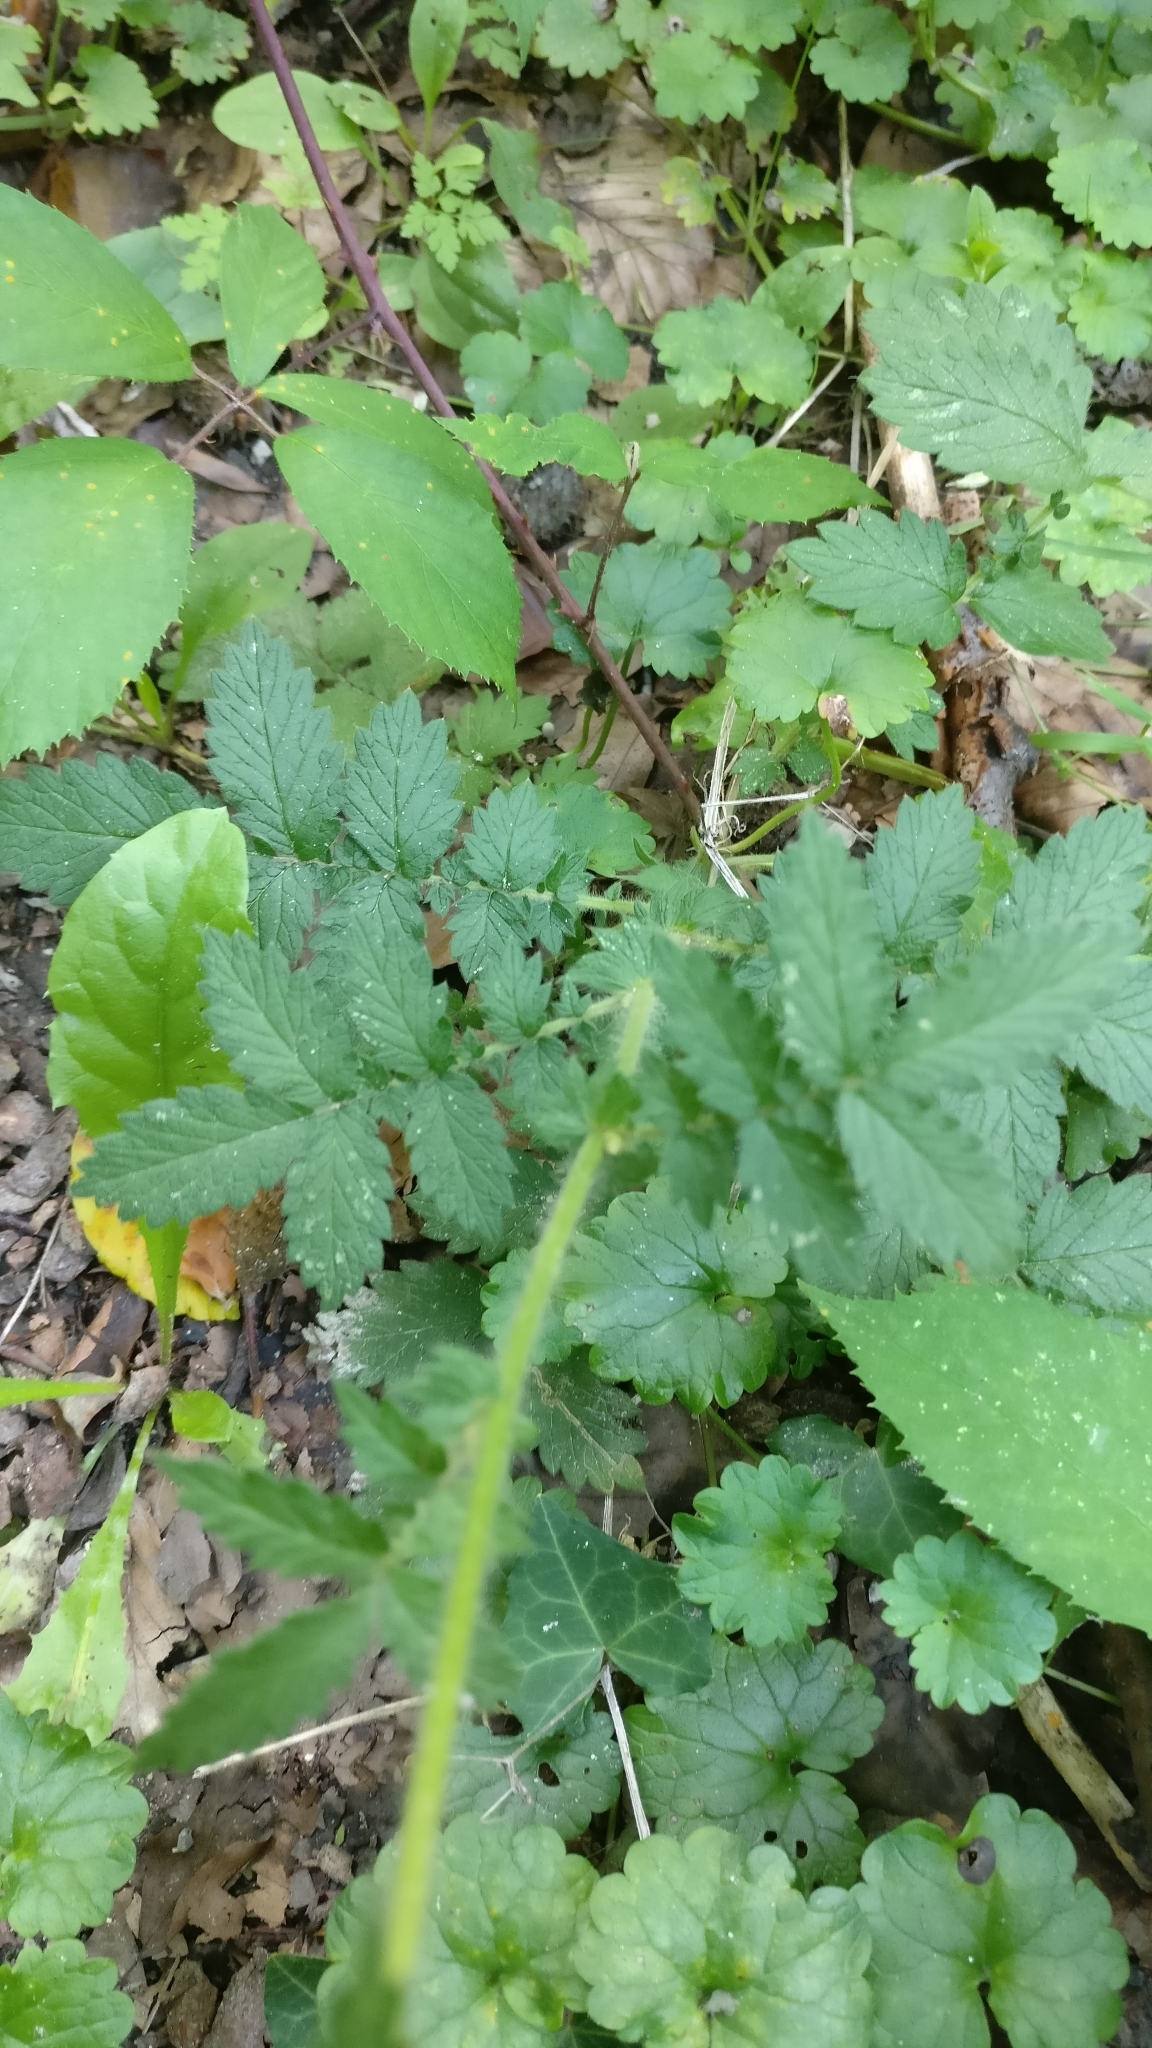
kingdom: Plantae
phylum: Tracheophyta
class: Magnoliopsida
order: Rosales
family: Rosaceae
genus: Agrimonia
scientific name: Agrimonia eupatoria
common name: Agrimony
